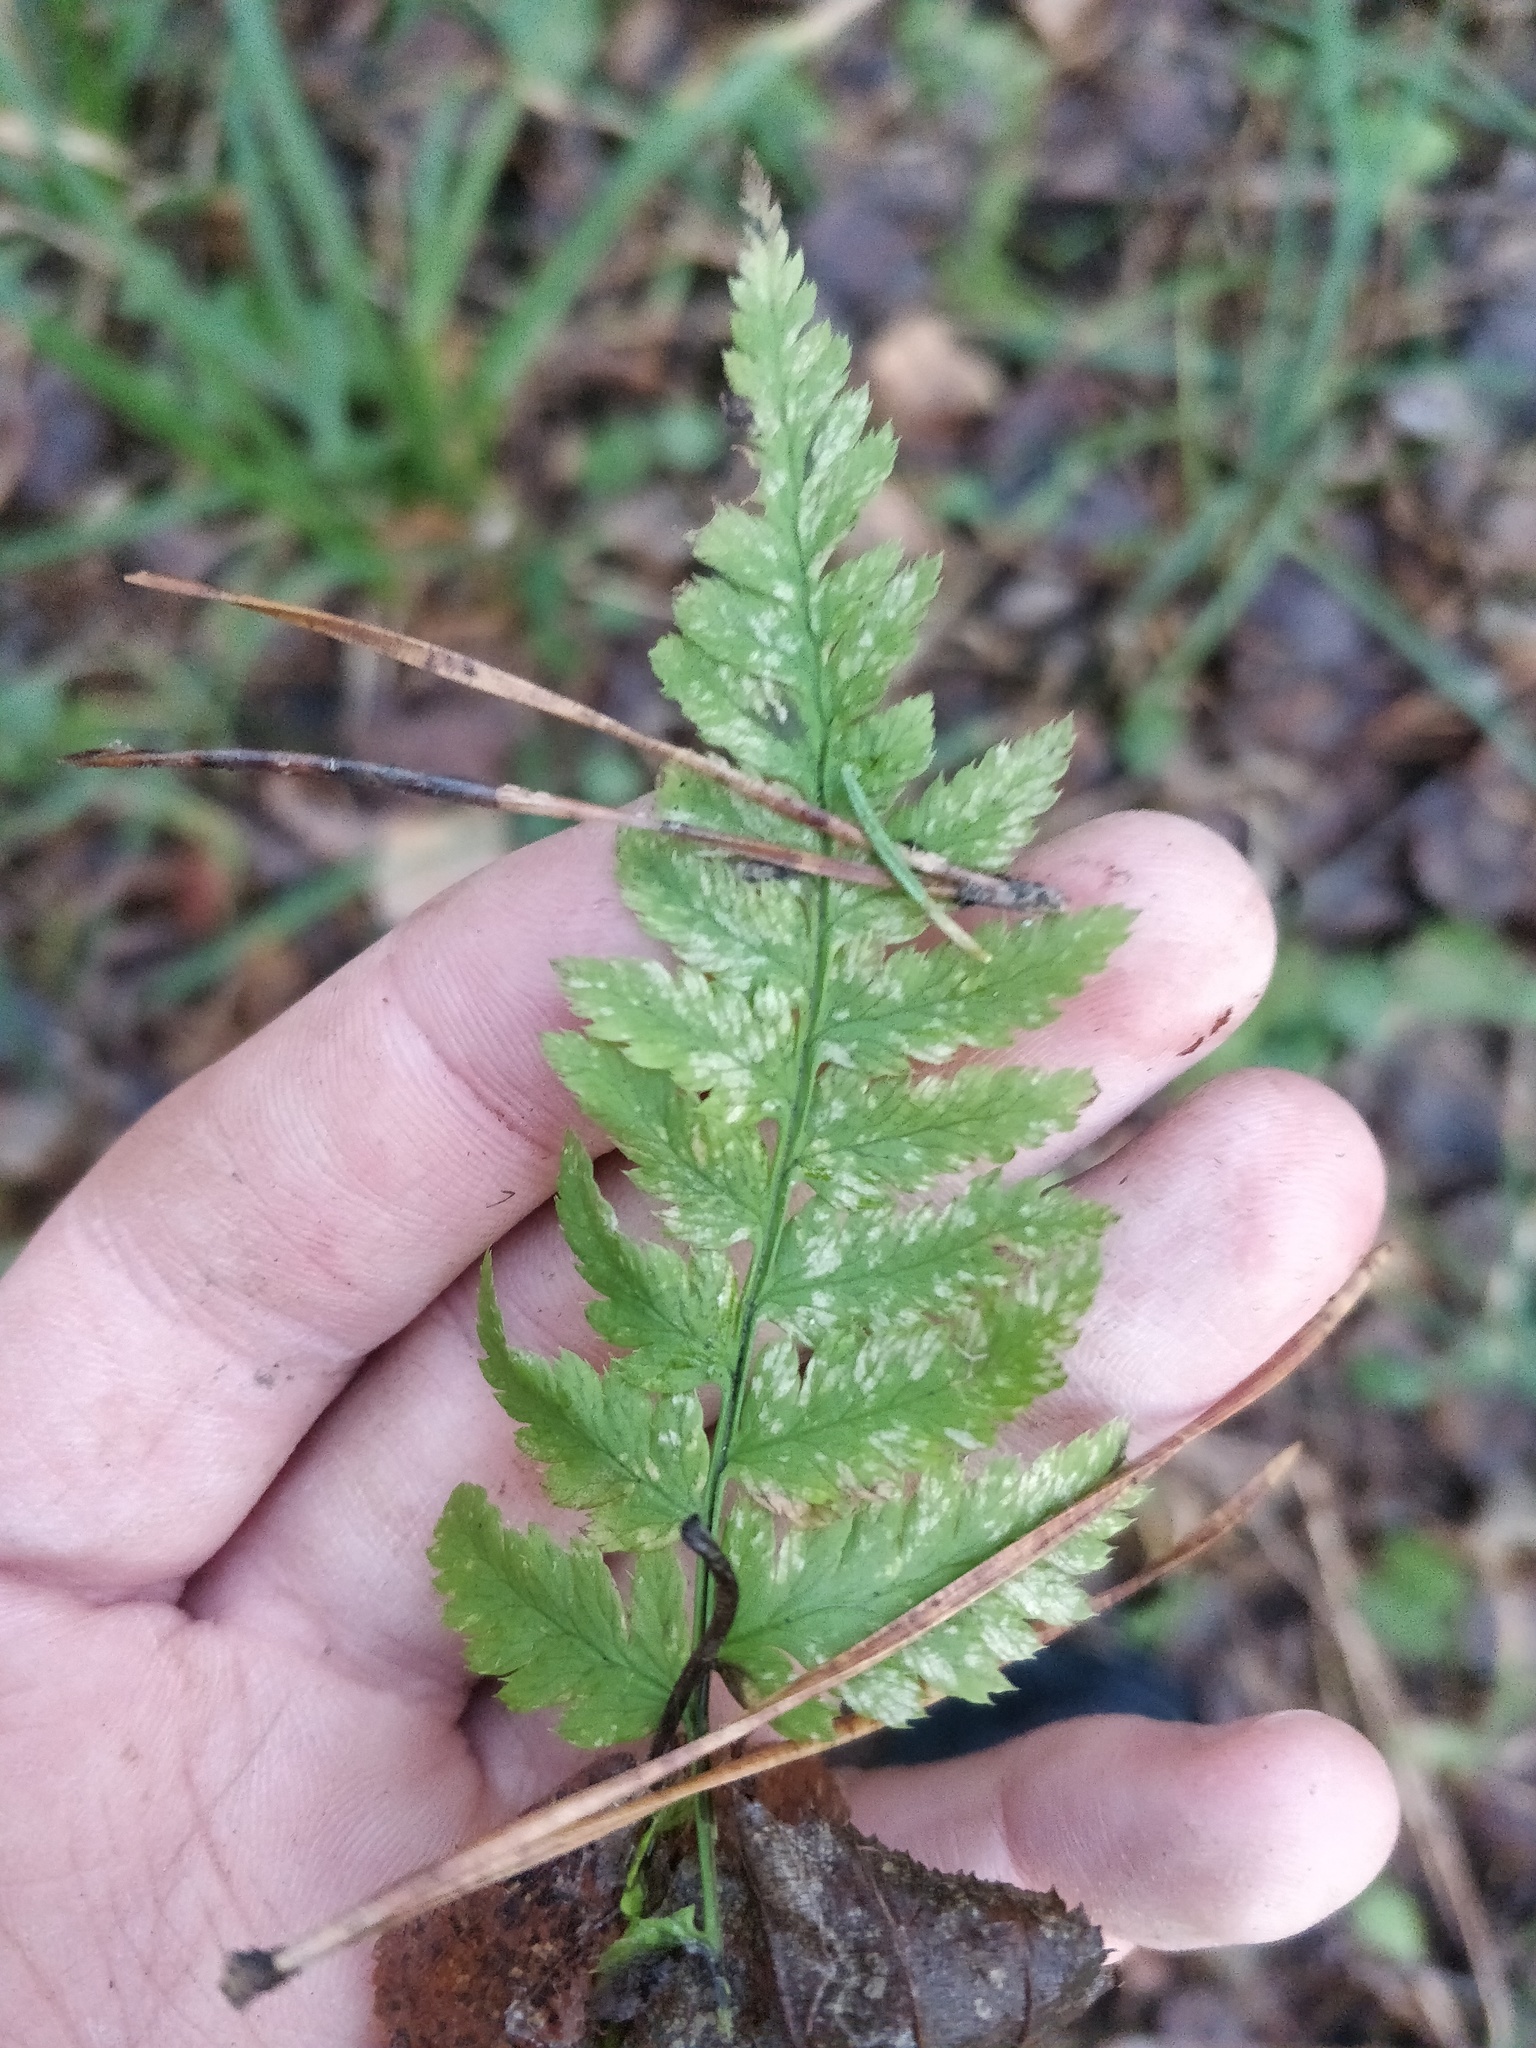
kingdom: Plantae
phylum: Tracheophyta
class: Polypodiopsida
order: Polypodiales
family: Dryopteridaceae
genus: Dryopteris
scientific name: Dryopteris carthusiana
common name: Narrow buckler-fern
